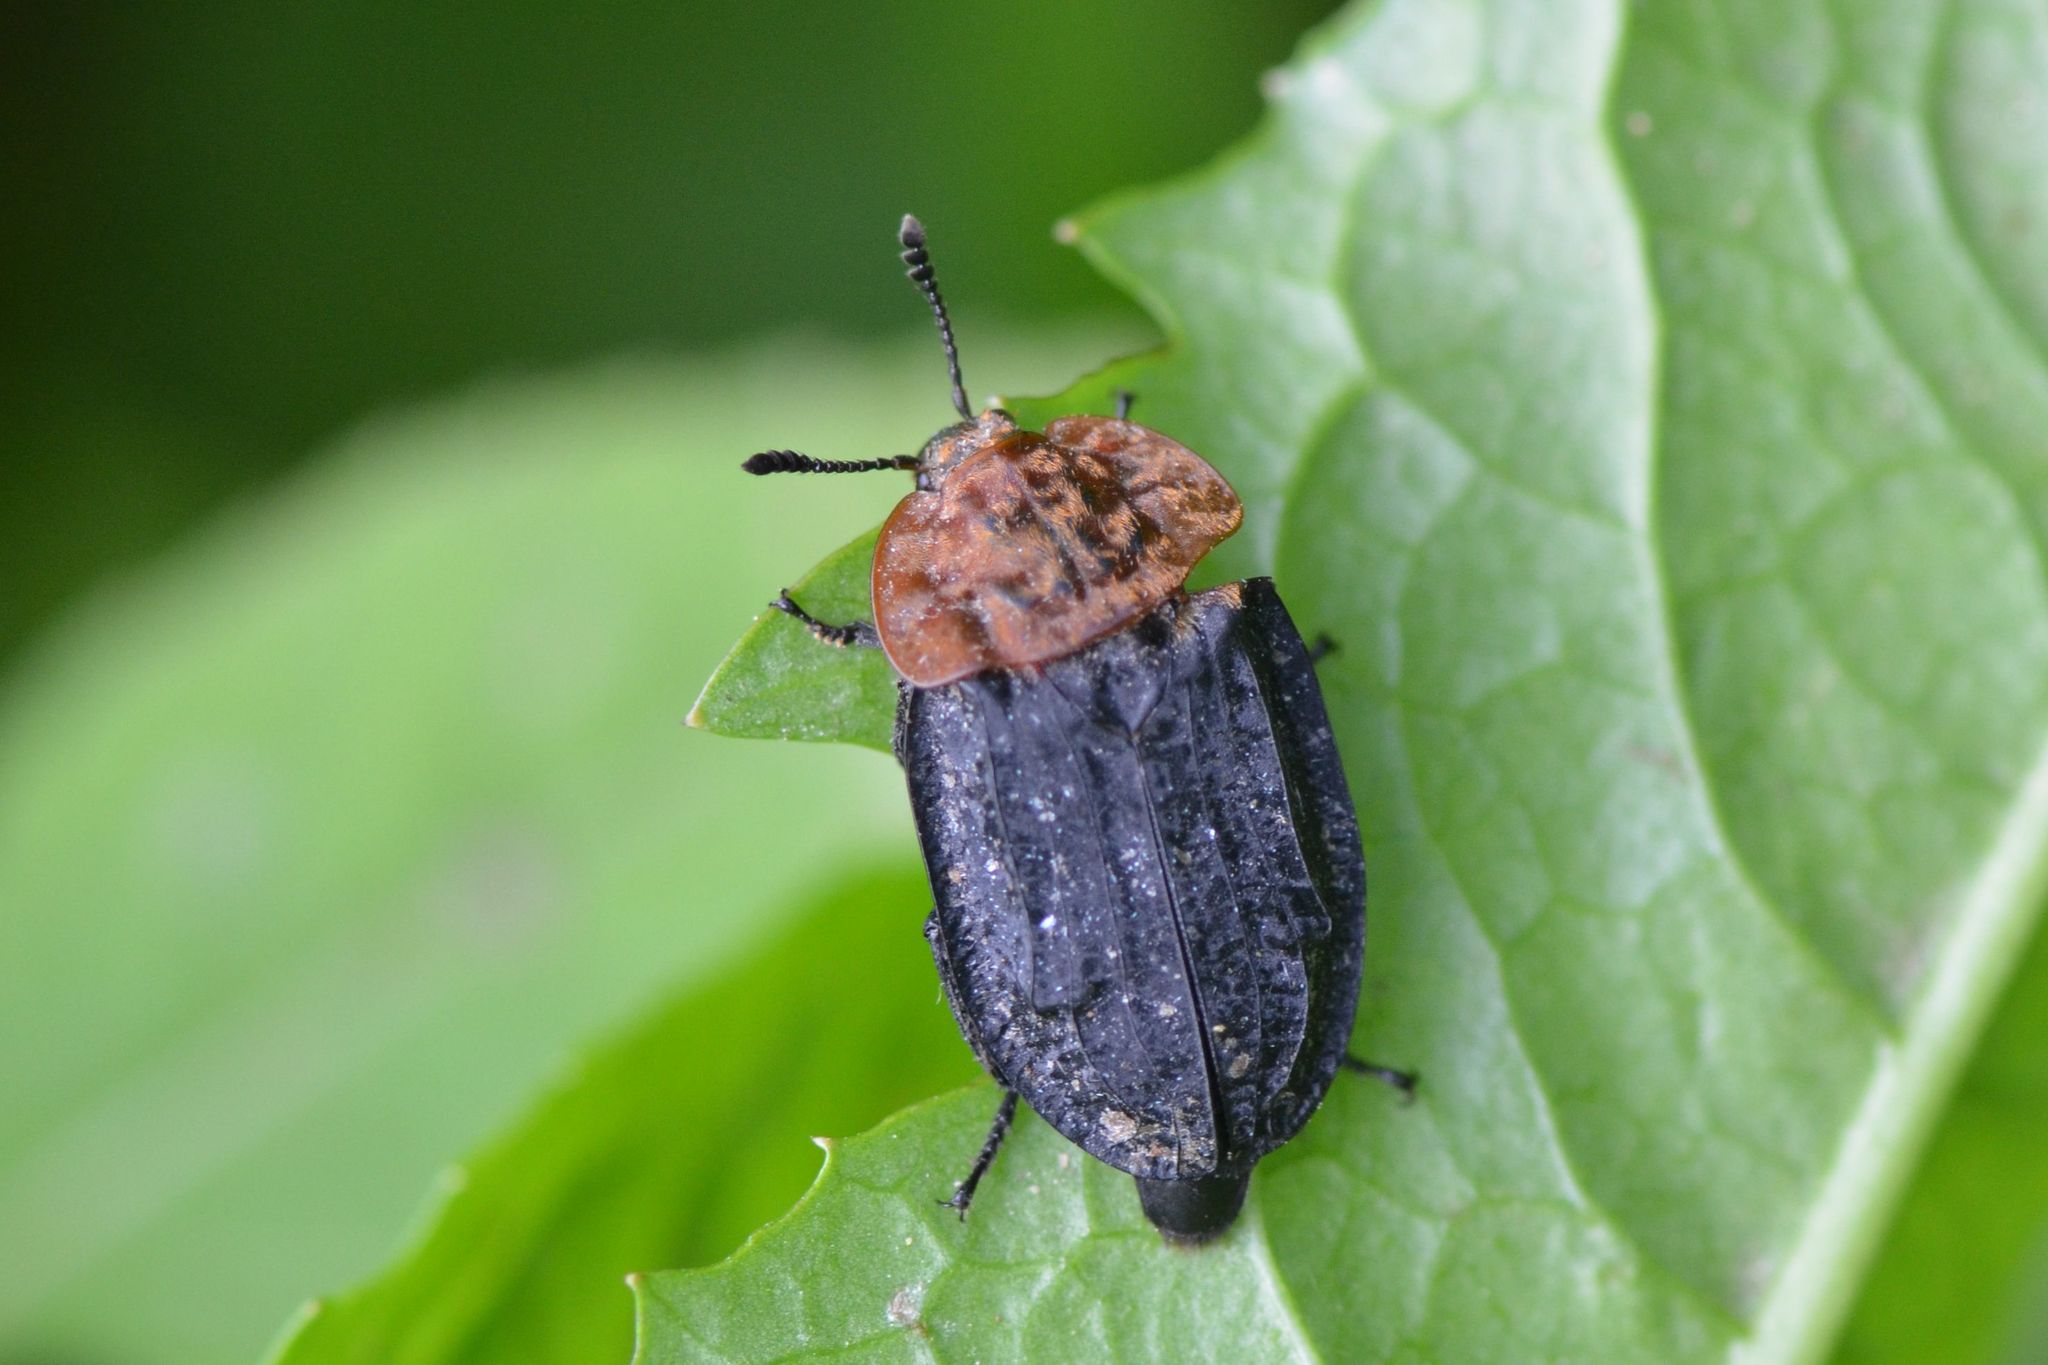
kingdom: Animalia
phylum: Arthropoda
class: Insecta
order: Coleoptera
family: Staphylinidae
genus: Oiceoptoma
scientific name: Oiceoptoma thoracicum
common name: Red-breasted carrion beetle
